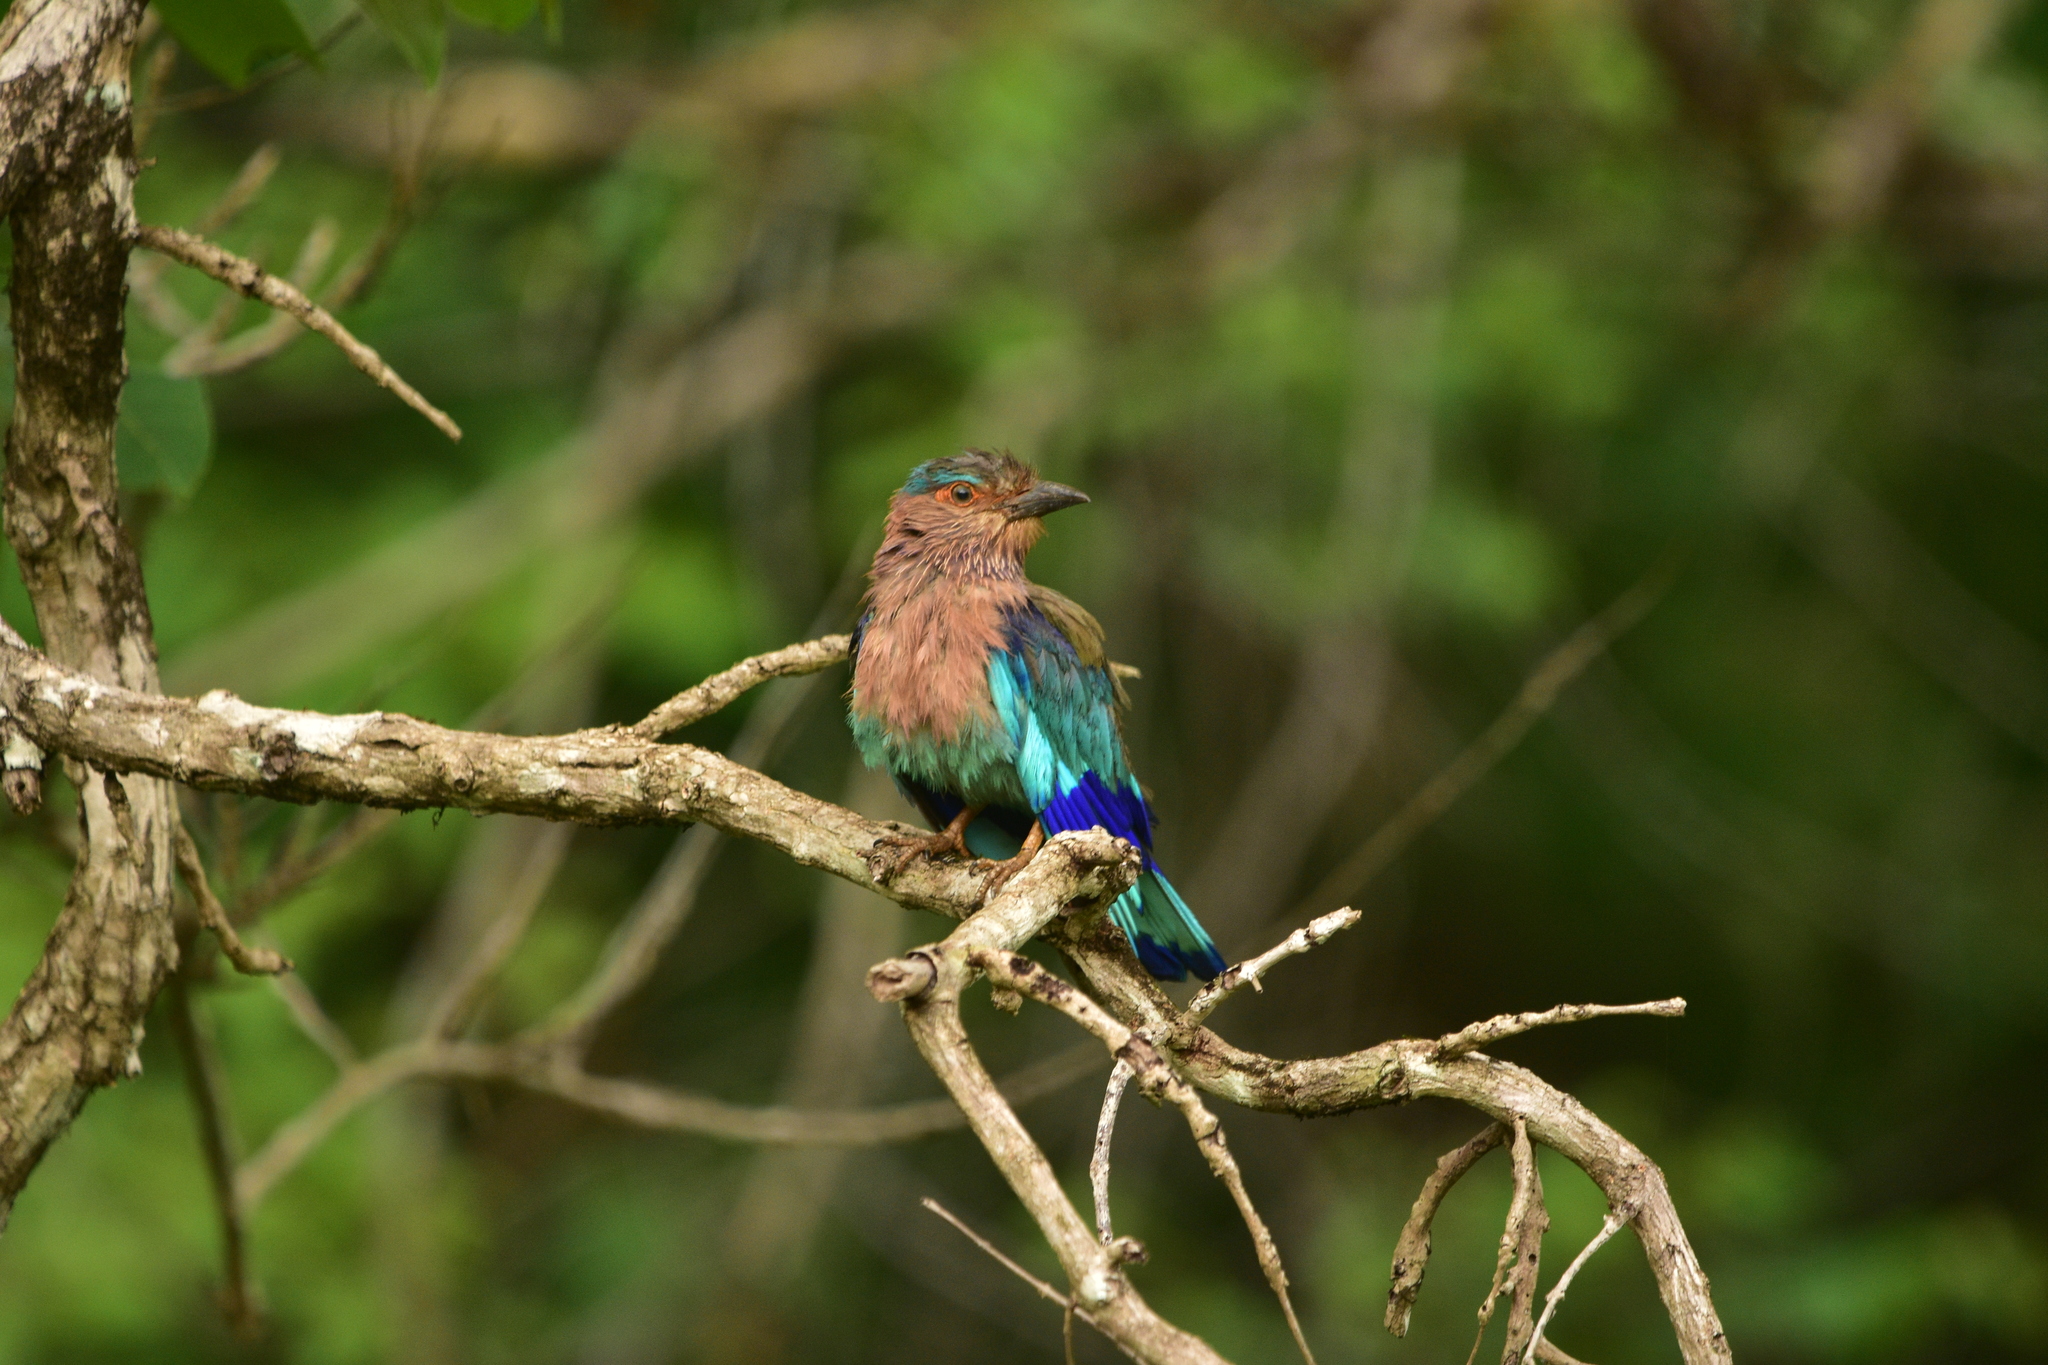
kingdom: Animalia
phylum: Chordata
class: Aves
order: Coraciiformes
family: Coraciidae
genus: Coracias
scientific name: Coracias benghalensis
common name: Indian roller
